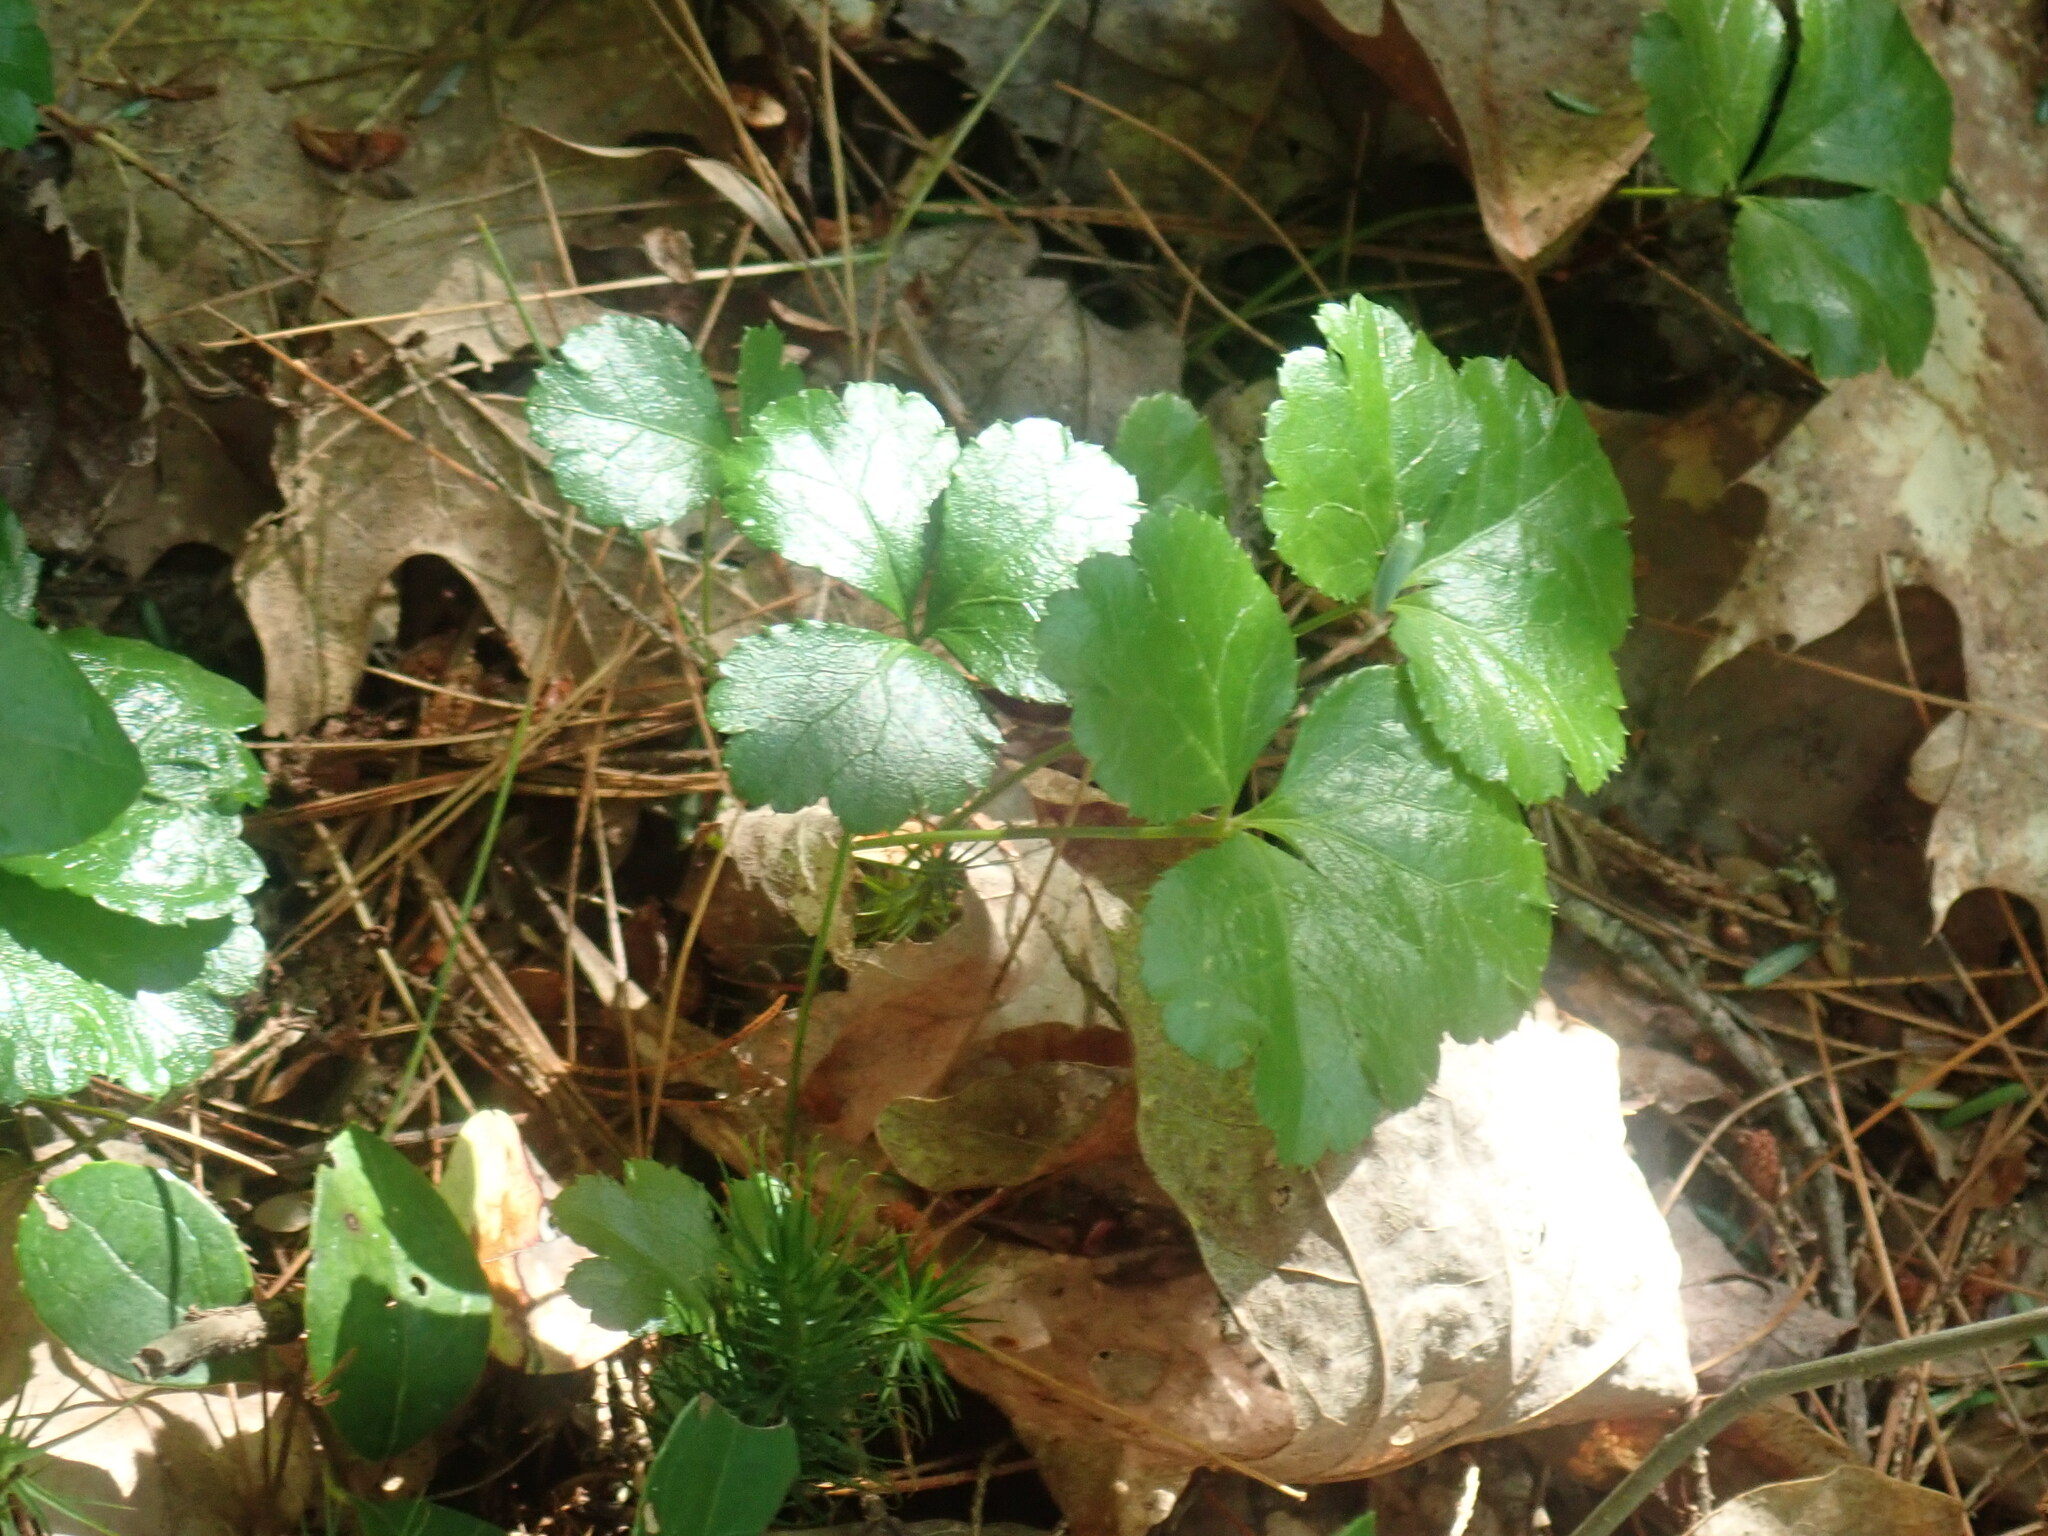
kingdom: Plantae
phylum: Tracheophyta
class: Magnoliopsida
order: Ranunculales
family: Ranunculaceae
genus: Coptis
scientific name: Coptis trifolia
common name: Canker-root
